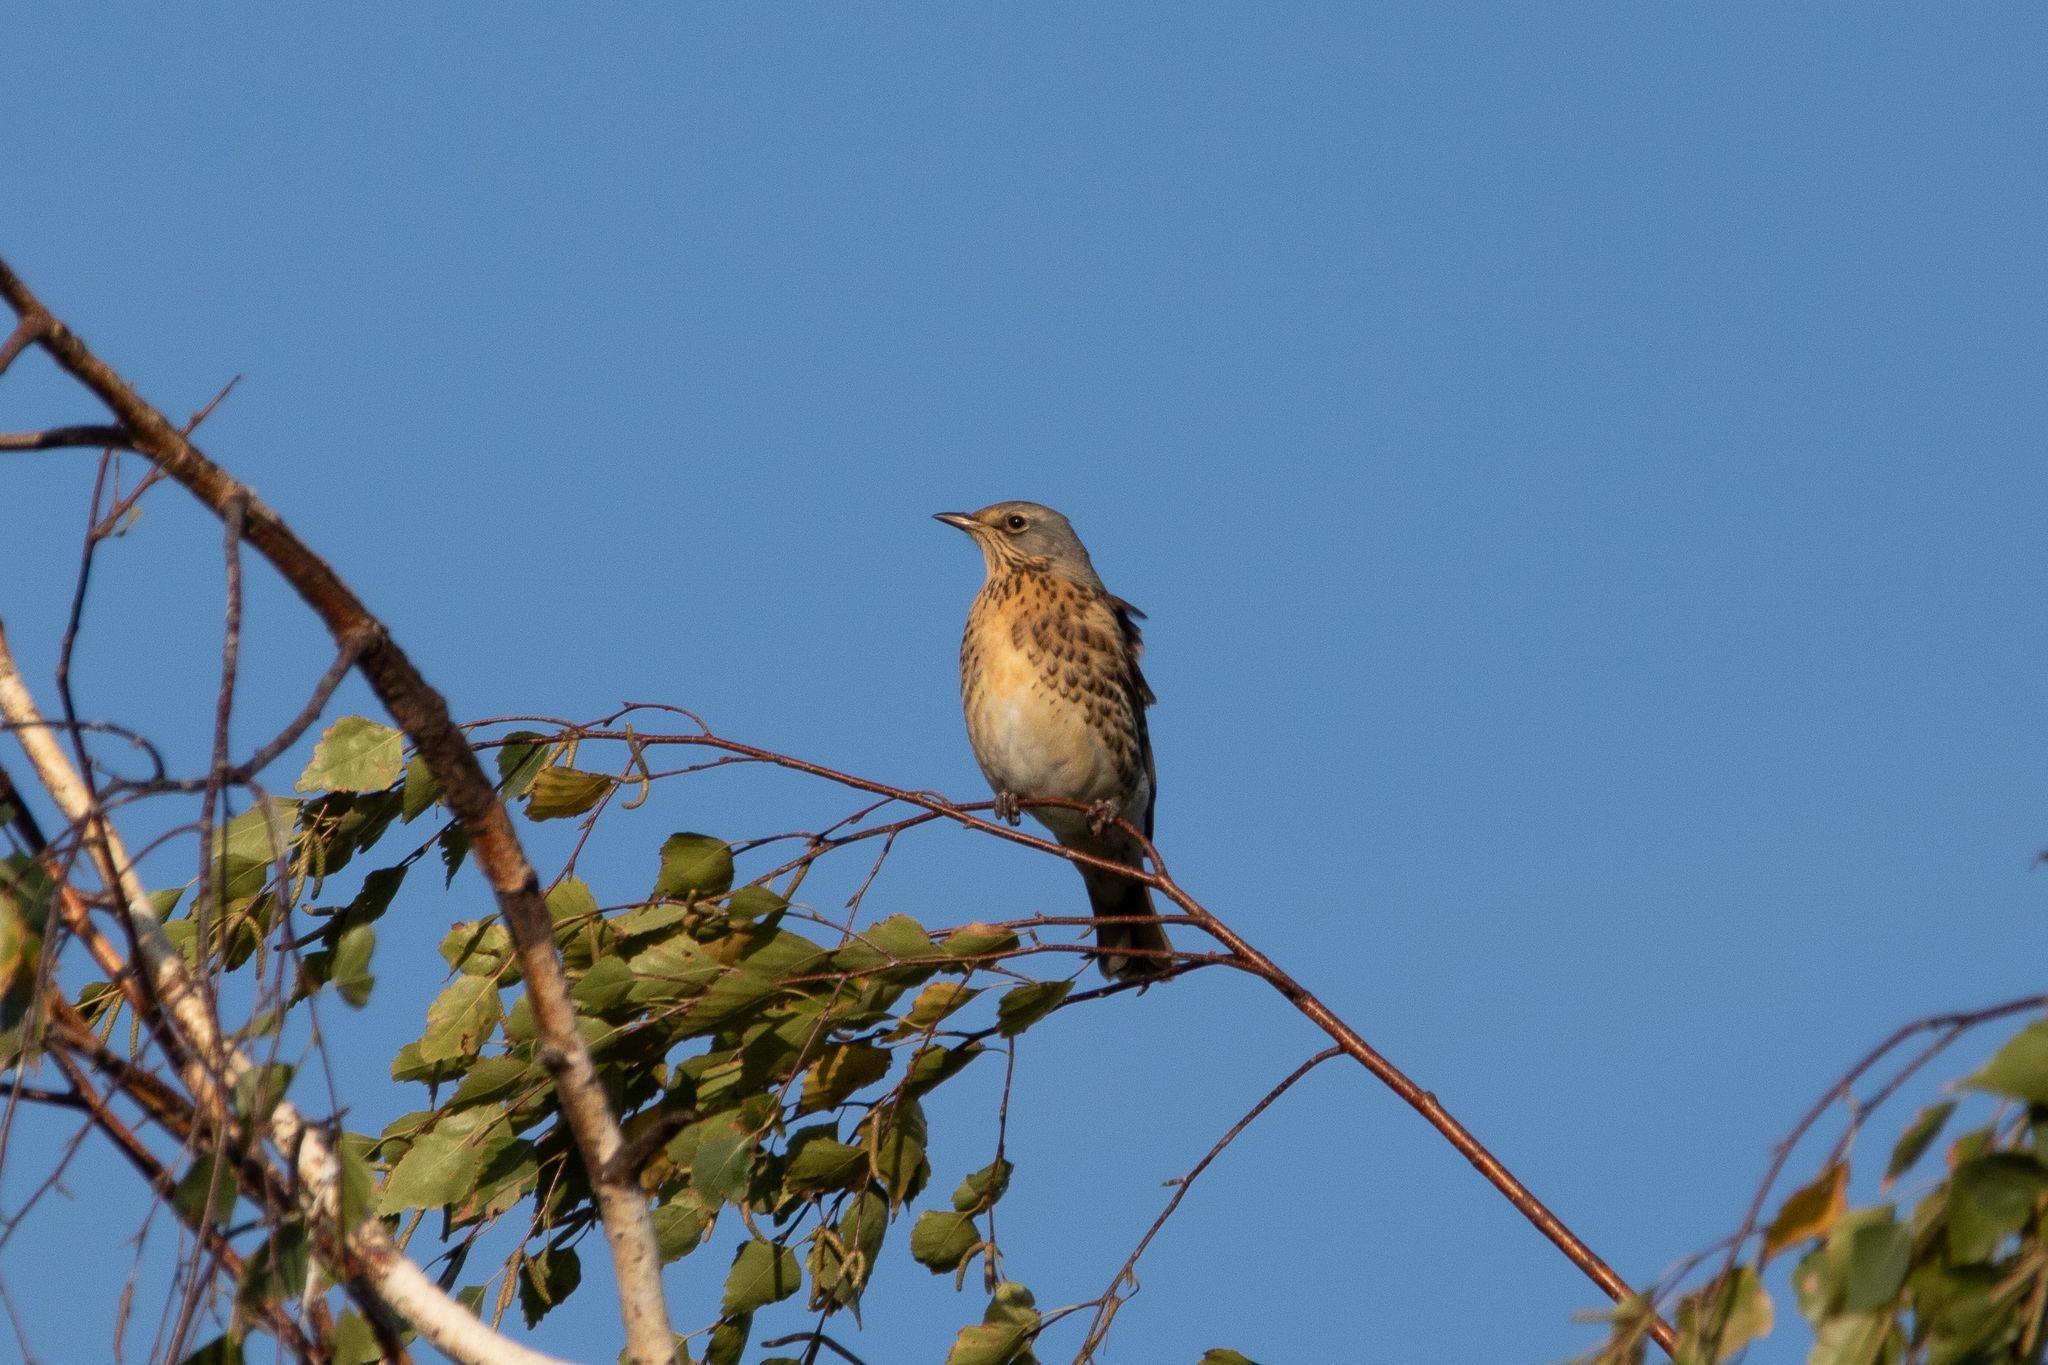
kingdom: Animalia
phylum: Chordata
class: Aves
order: Passeriformes
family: Turdidae
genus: Turdus
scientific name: Turdus pilaris
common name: Fieldfare
